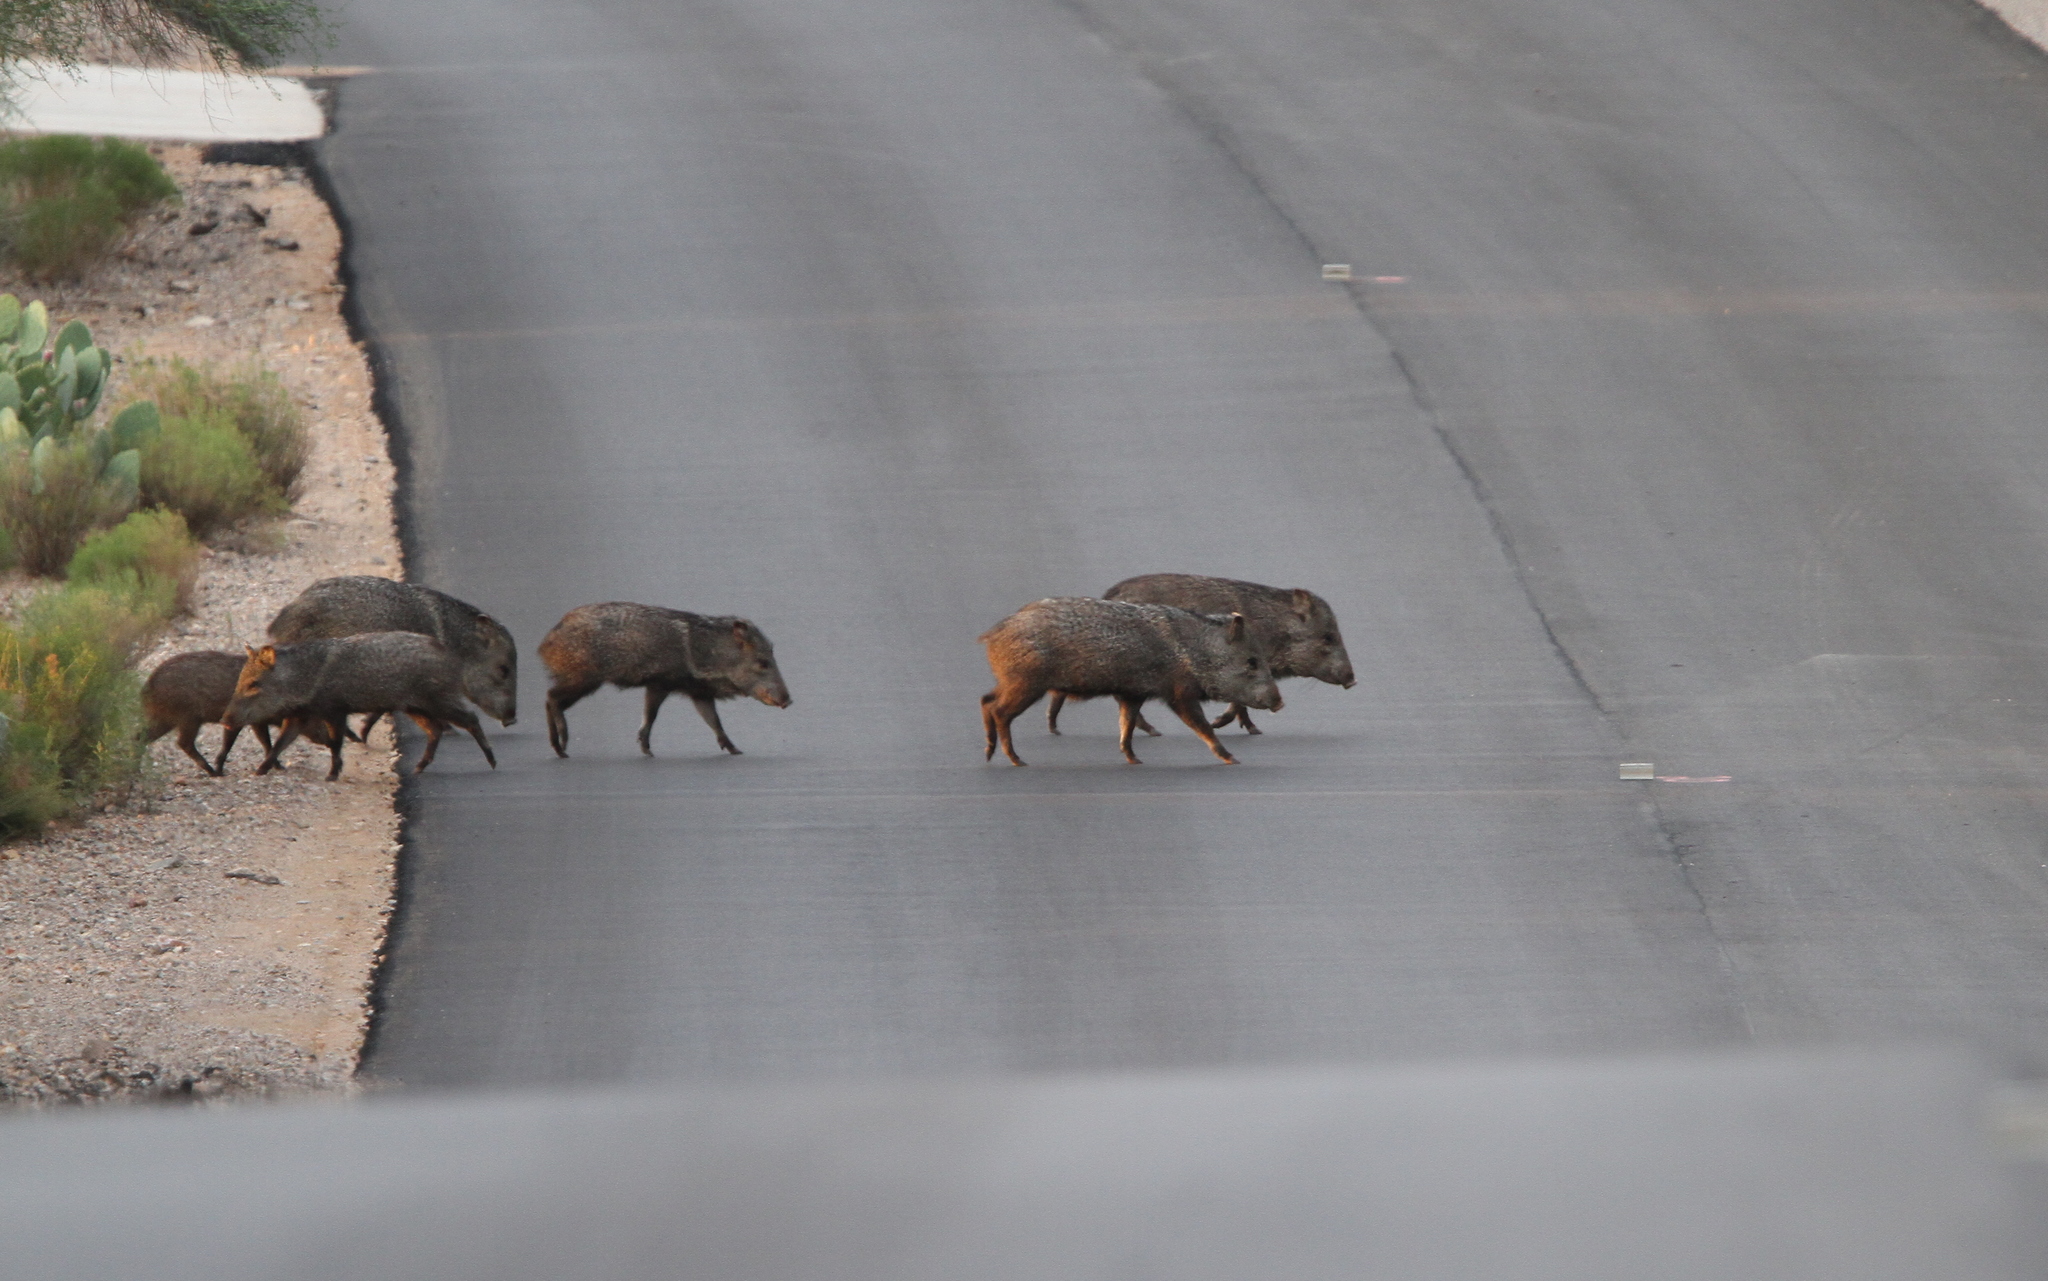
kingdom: Animalia
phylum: Chordata
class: Mammalia
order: Artiodactyla
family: Tayassuidae
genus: Pecari
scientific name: Pecari tajacu
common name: Collared peccary
